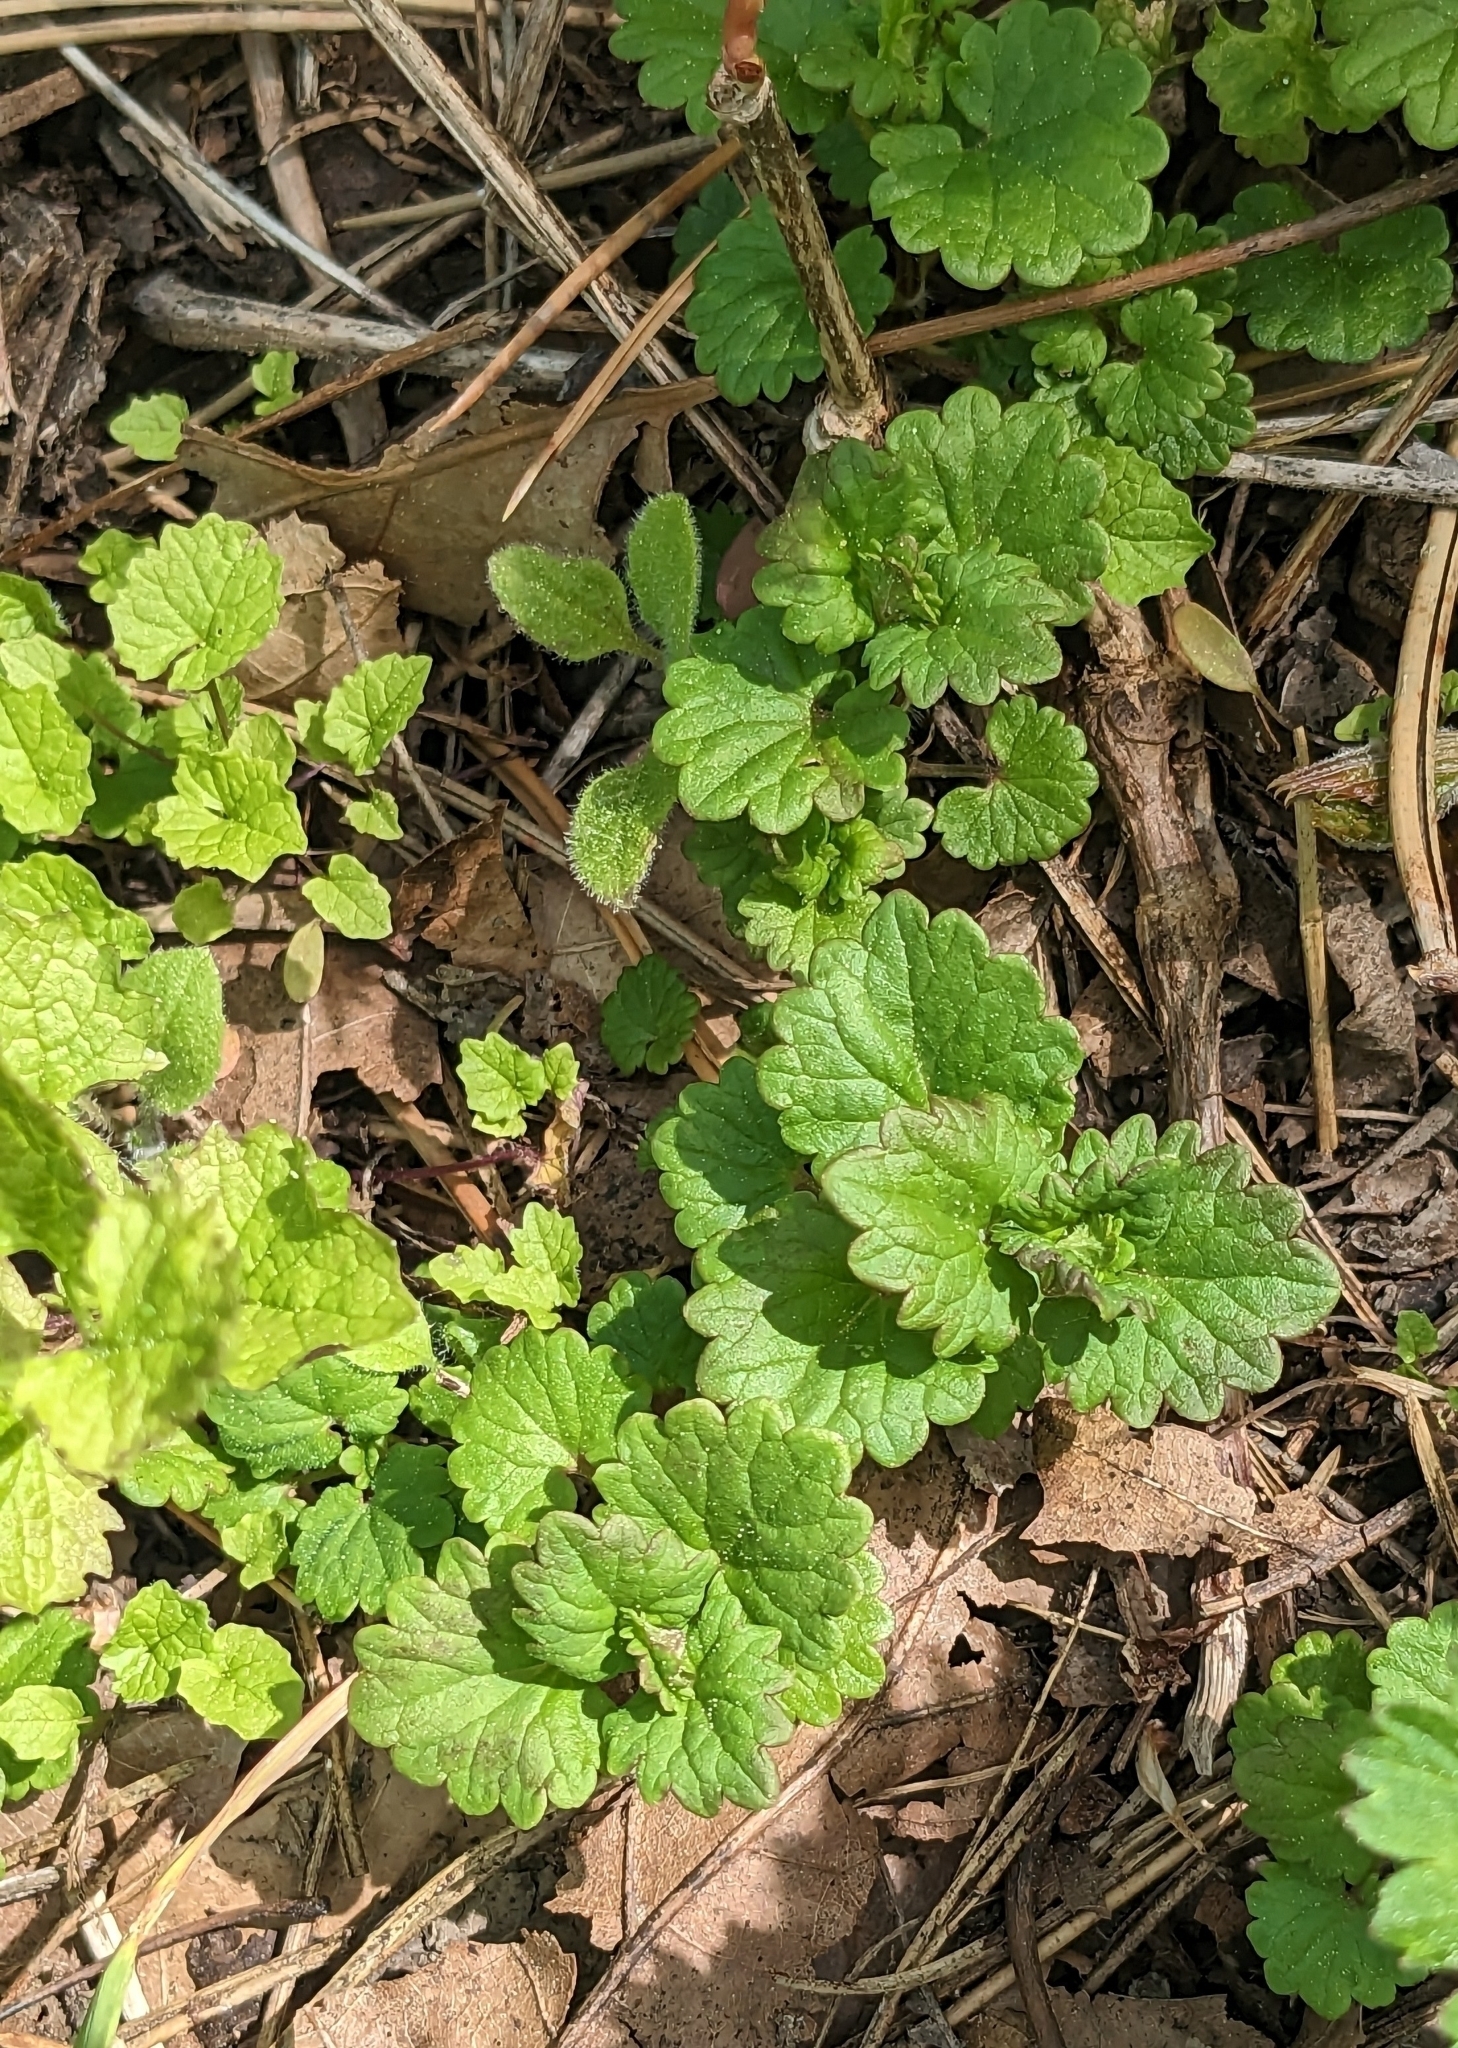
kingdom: Plantae
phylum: Tracheophyta
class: Magnoliopsida
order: Lamiales
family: Lamiaceae
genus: Glechoma
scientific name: Glechoma hederacea
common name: Ground ivy
